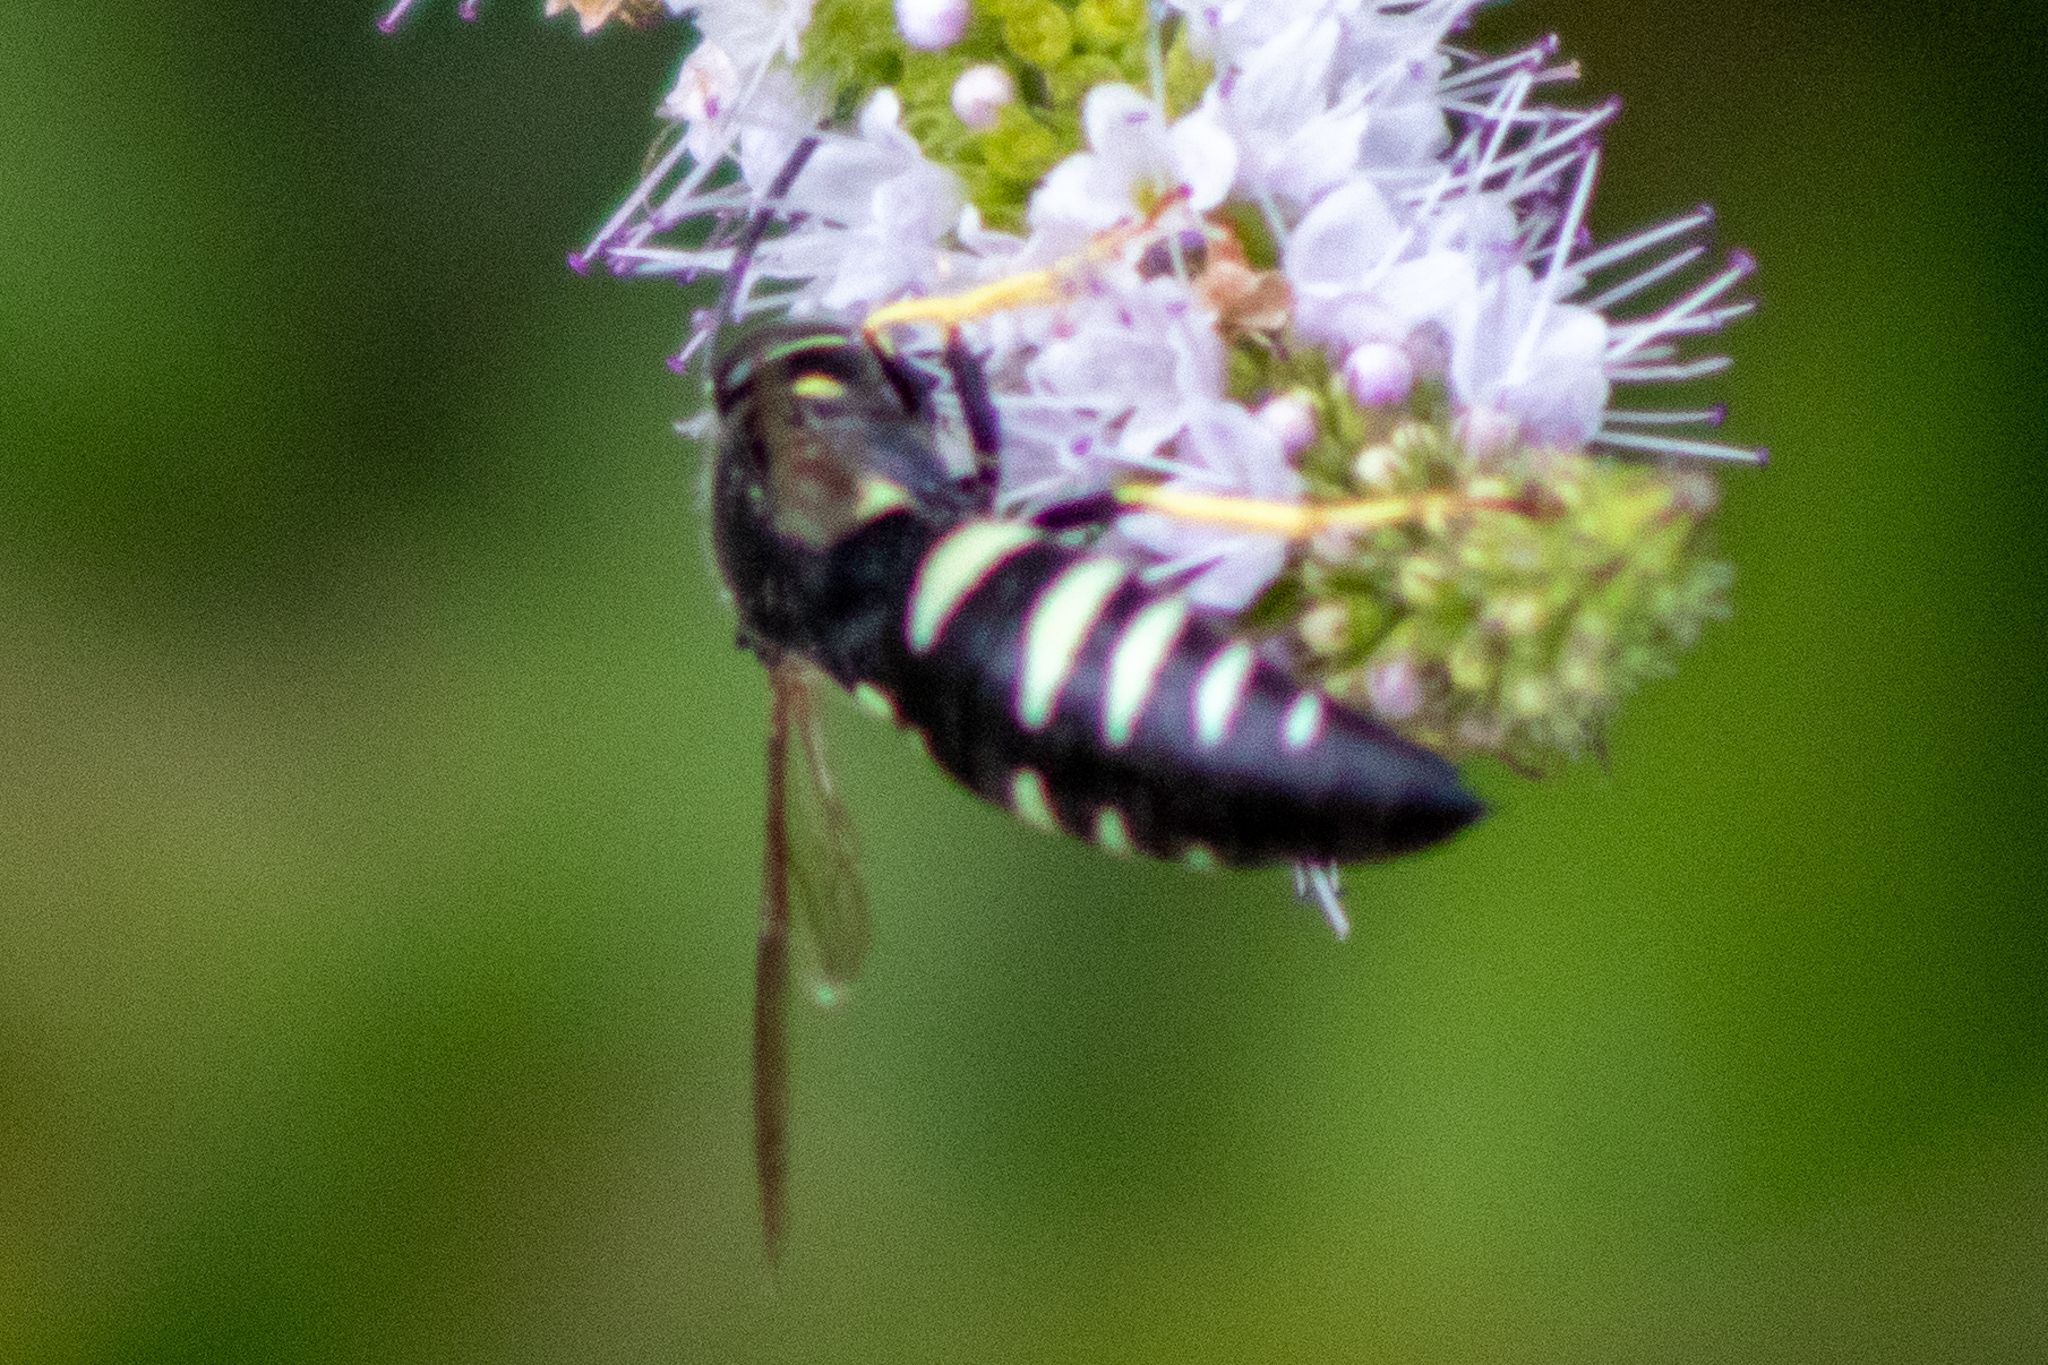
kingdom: Animalia
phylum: Arthropoda
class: Insecta
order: Hymenoptera
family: Crabronidae
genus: Bicyrtes
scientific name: Bicyrtes quadrifasciatus
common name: Four-banded stink bug hunter wasp
